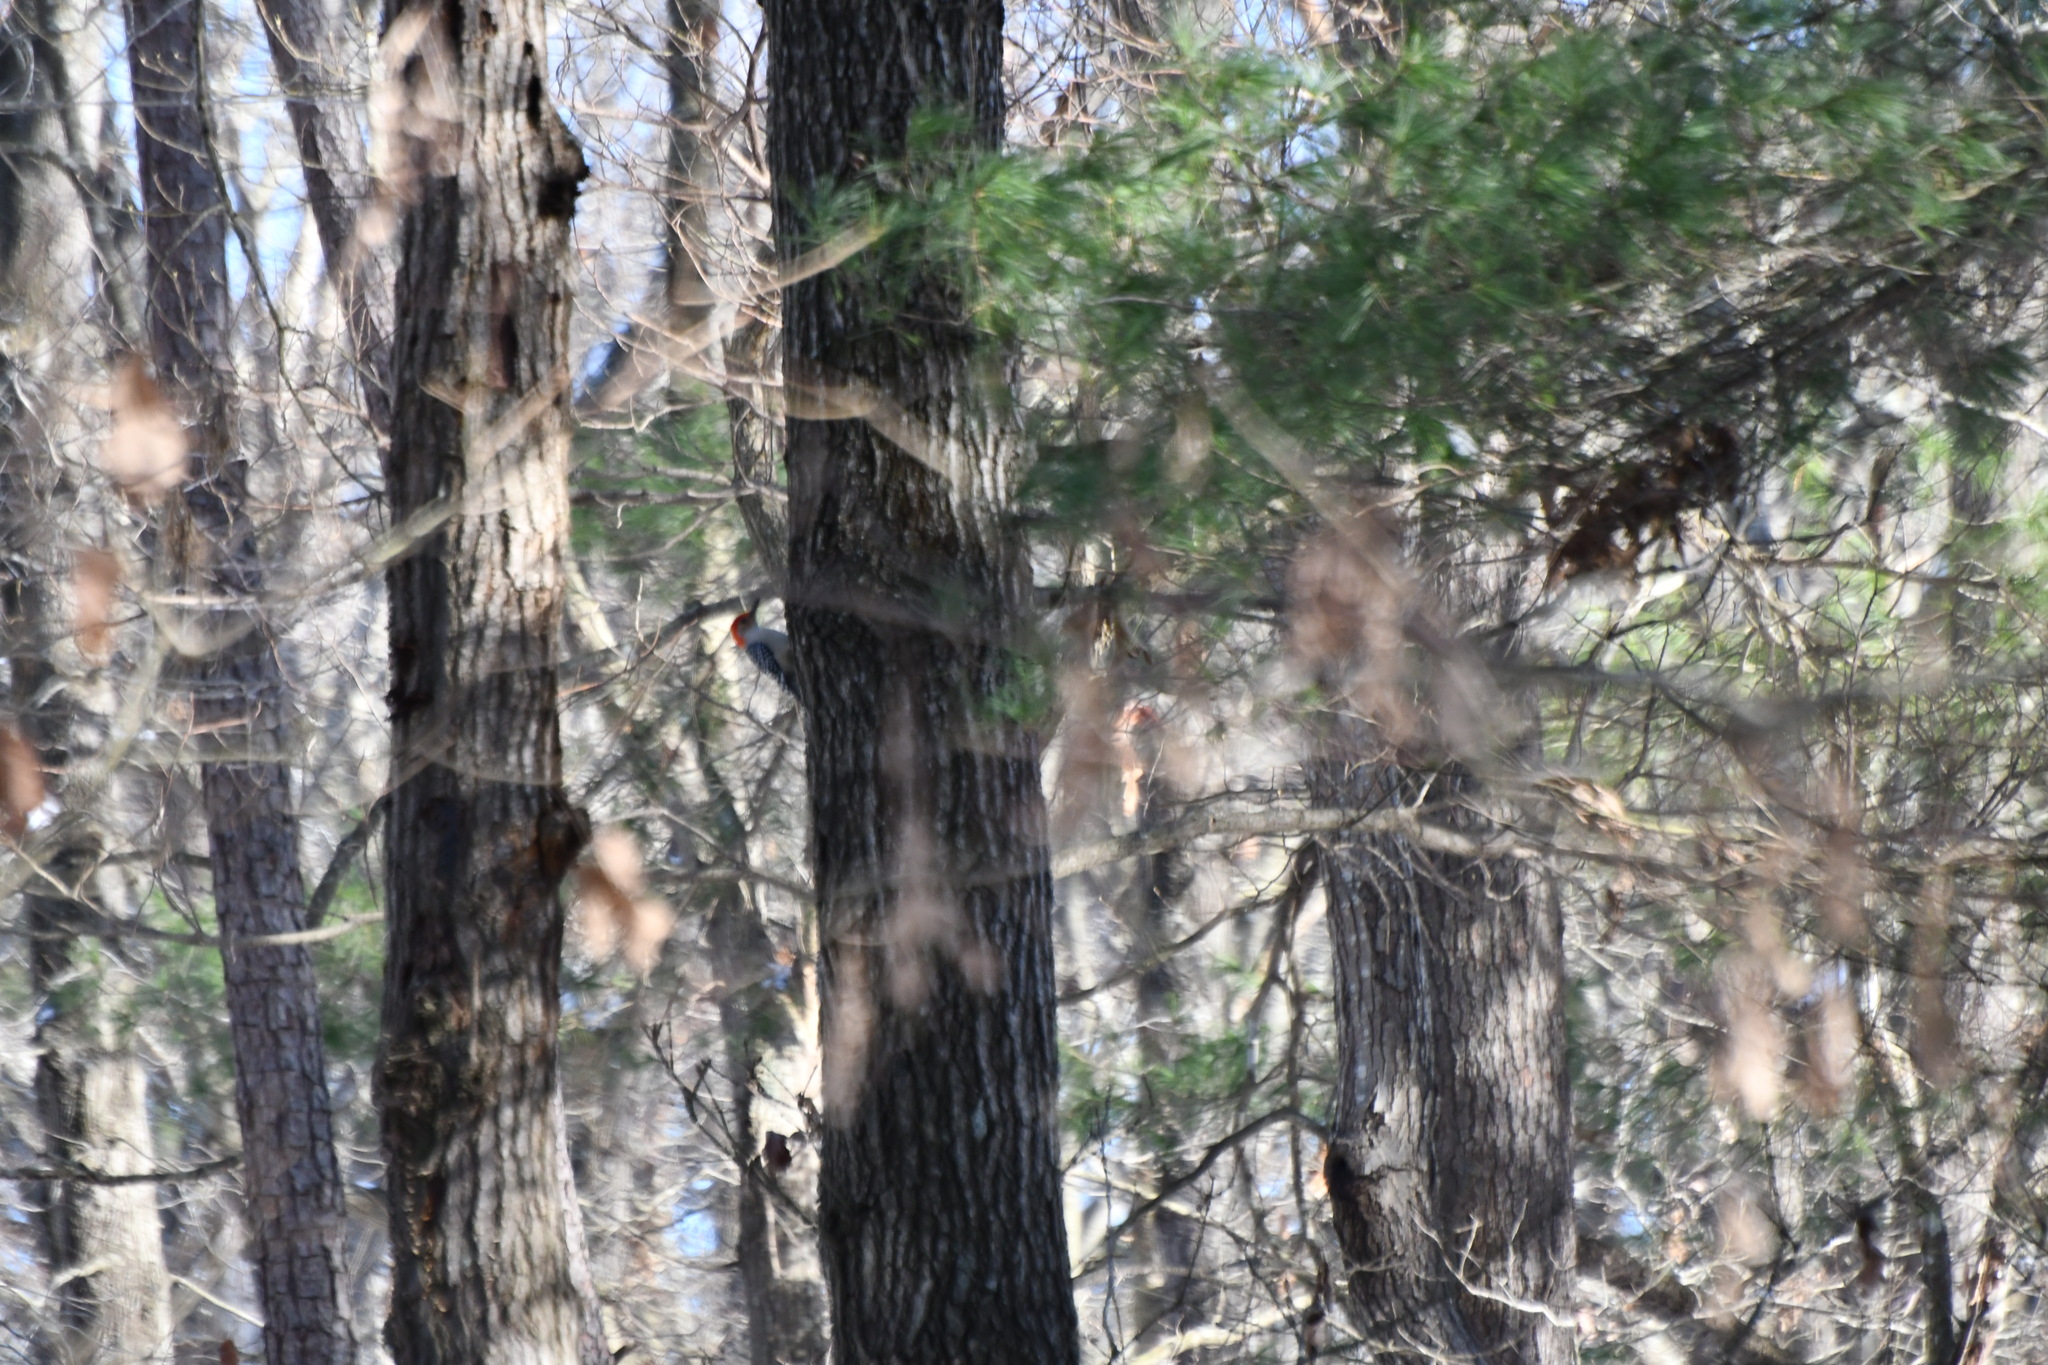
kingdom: Animalia
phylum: Chordata
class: Aves
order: Piciformes
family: Picidae
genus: Melanerpes
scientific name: Melanerpes carolinus
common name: Red-bellied woodpecker
